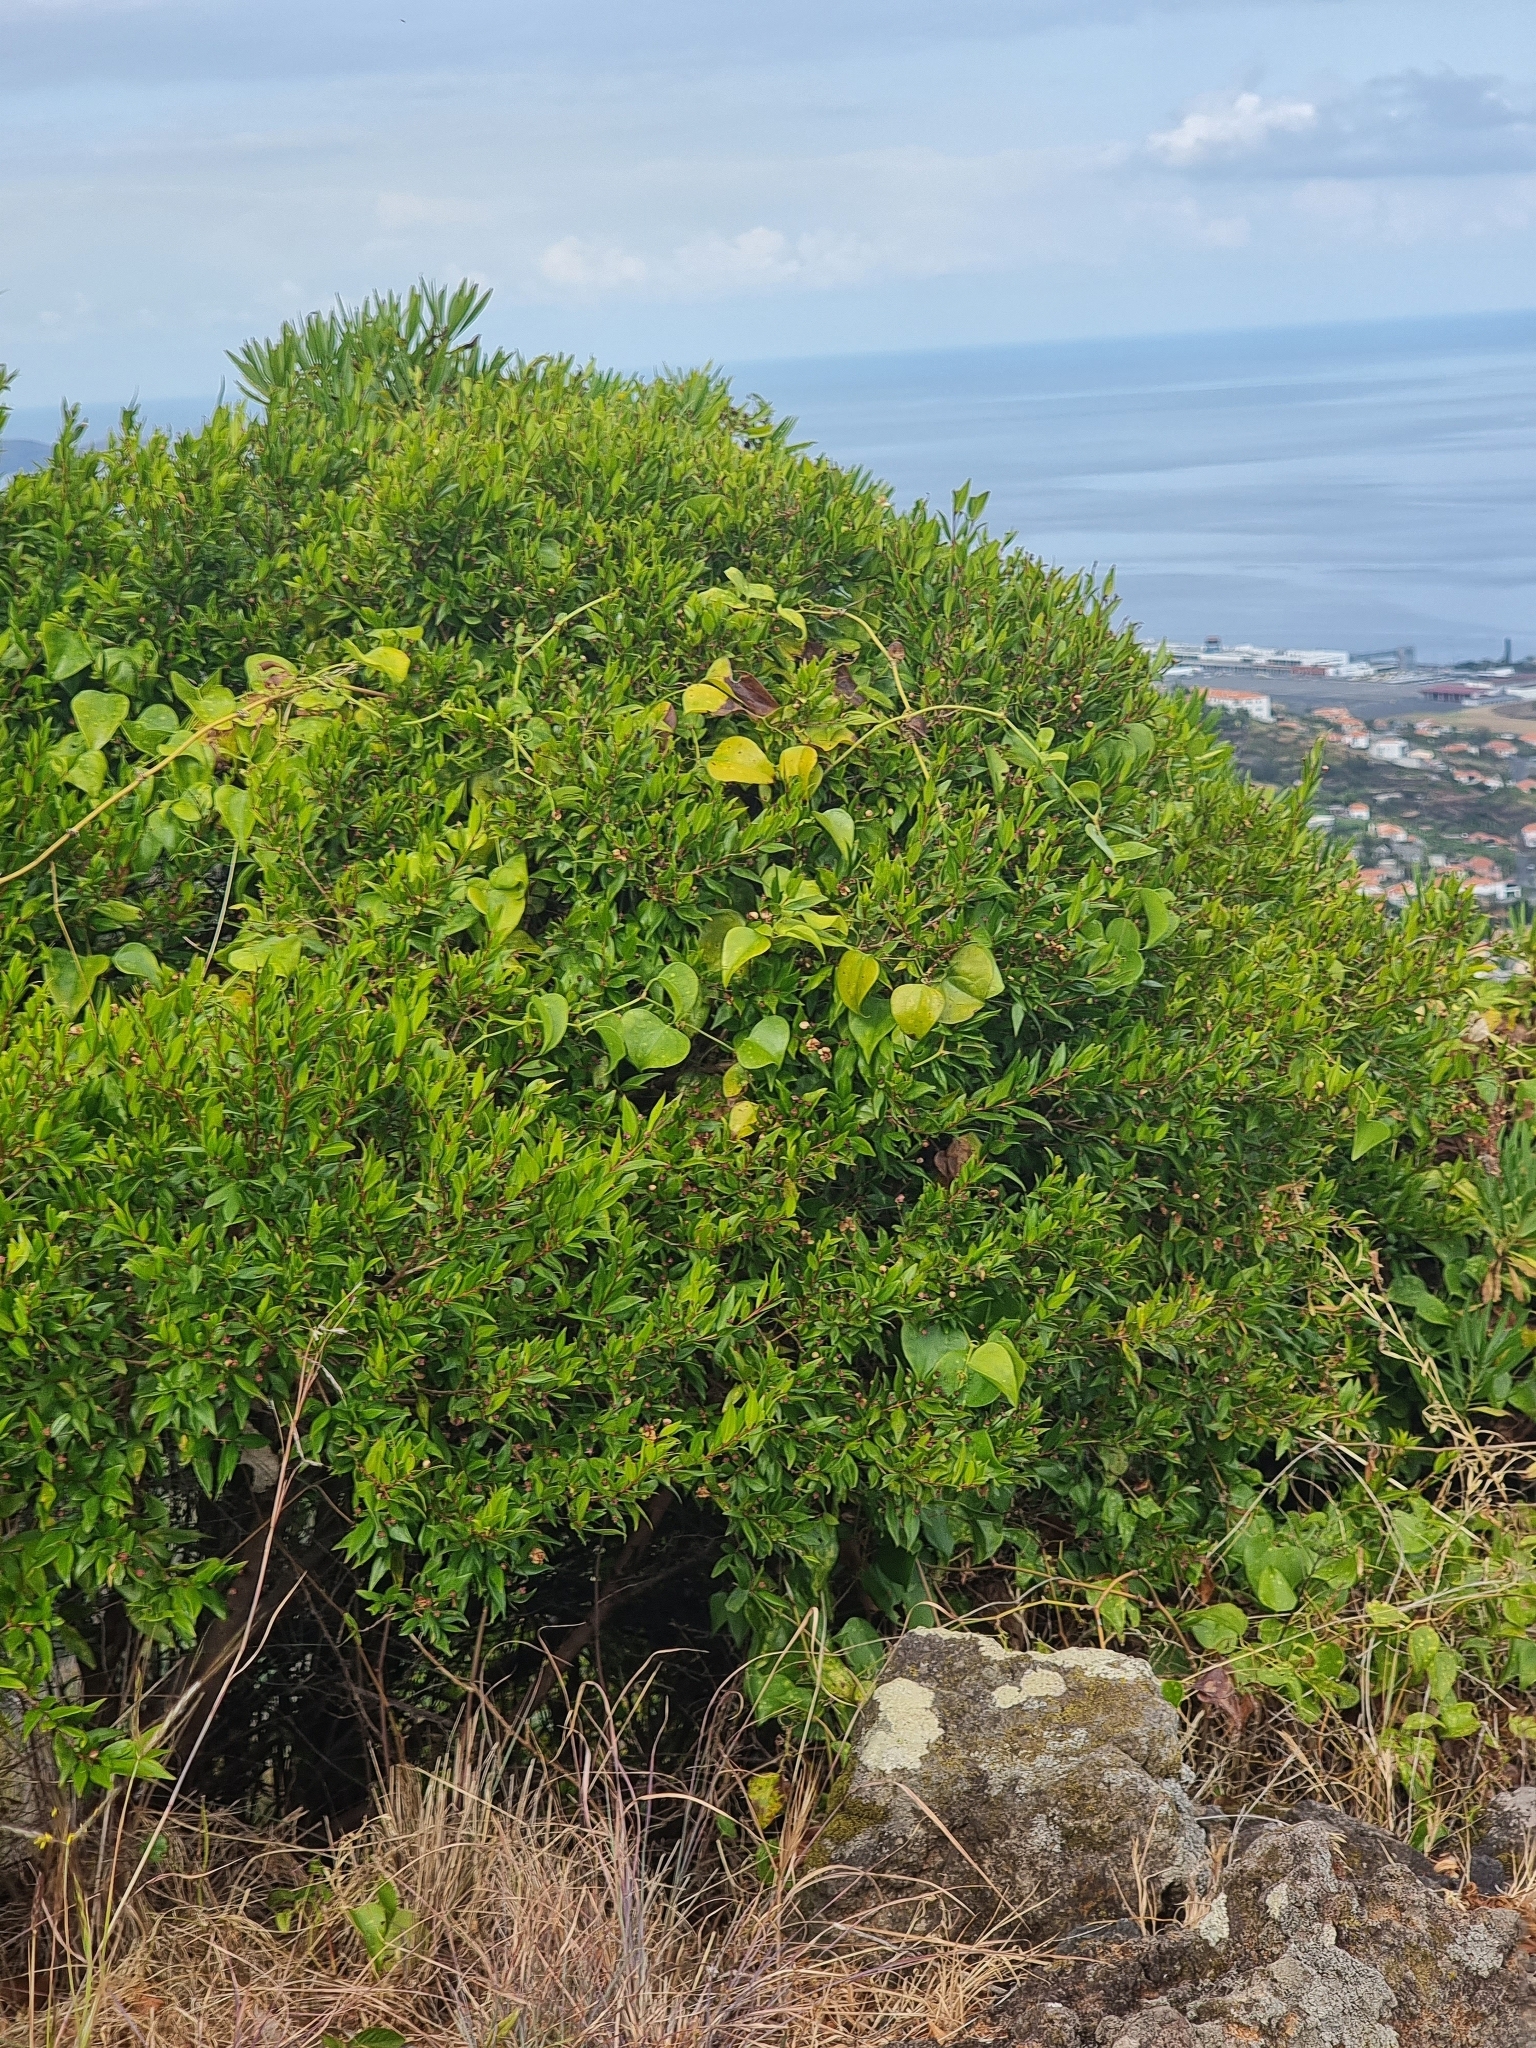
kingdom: Plantae
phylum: Tracheophyta
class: Magnoliopsida
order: Myrtales
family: Myrtaceae
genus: Myrtus
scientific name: Myrtus communis
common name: Myrtle
